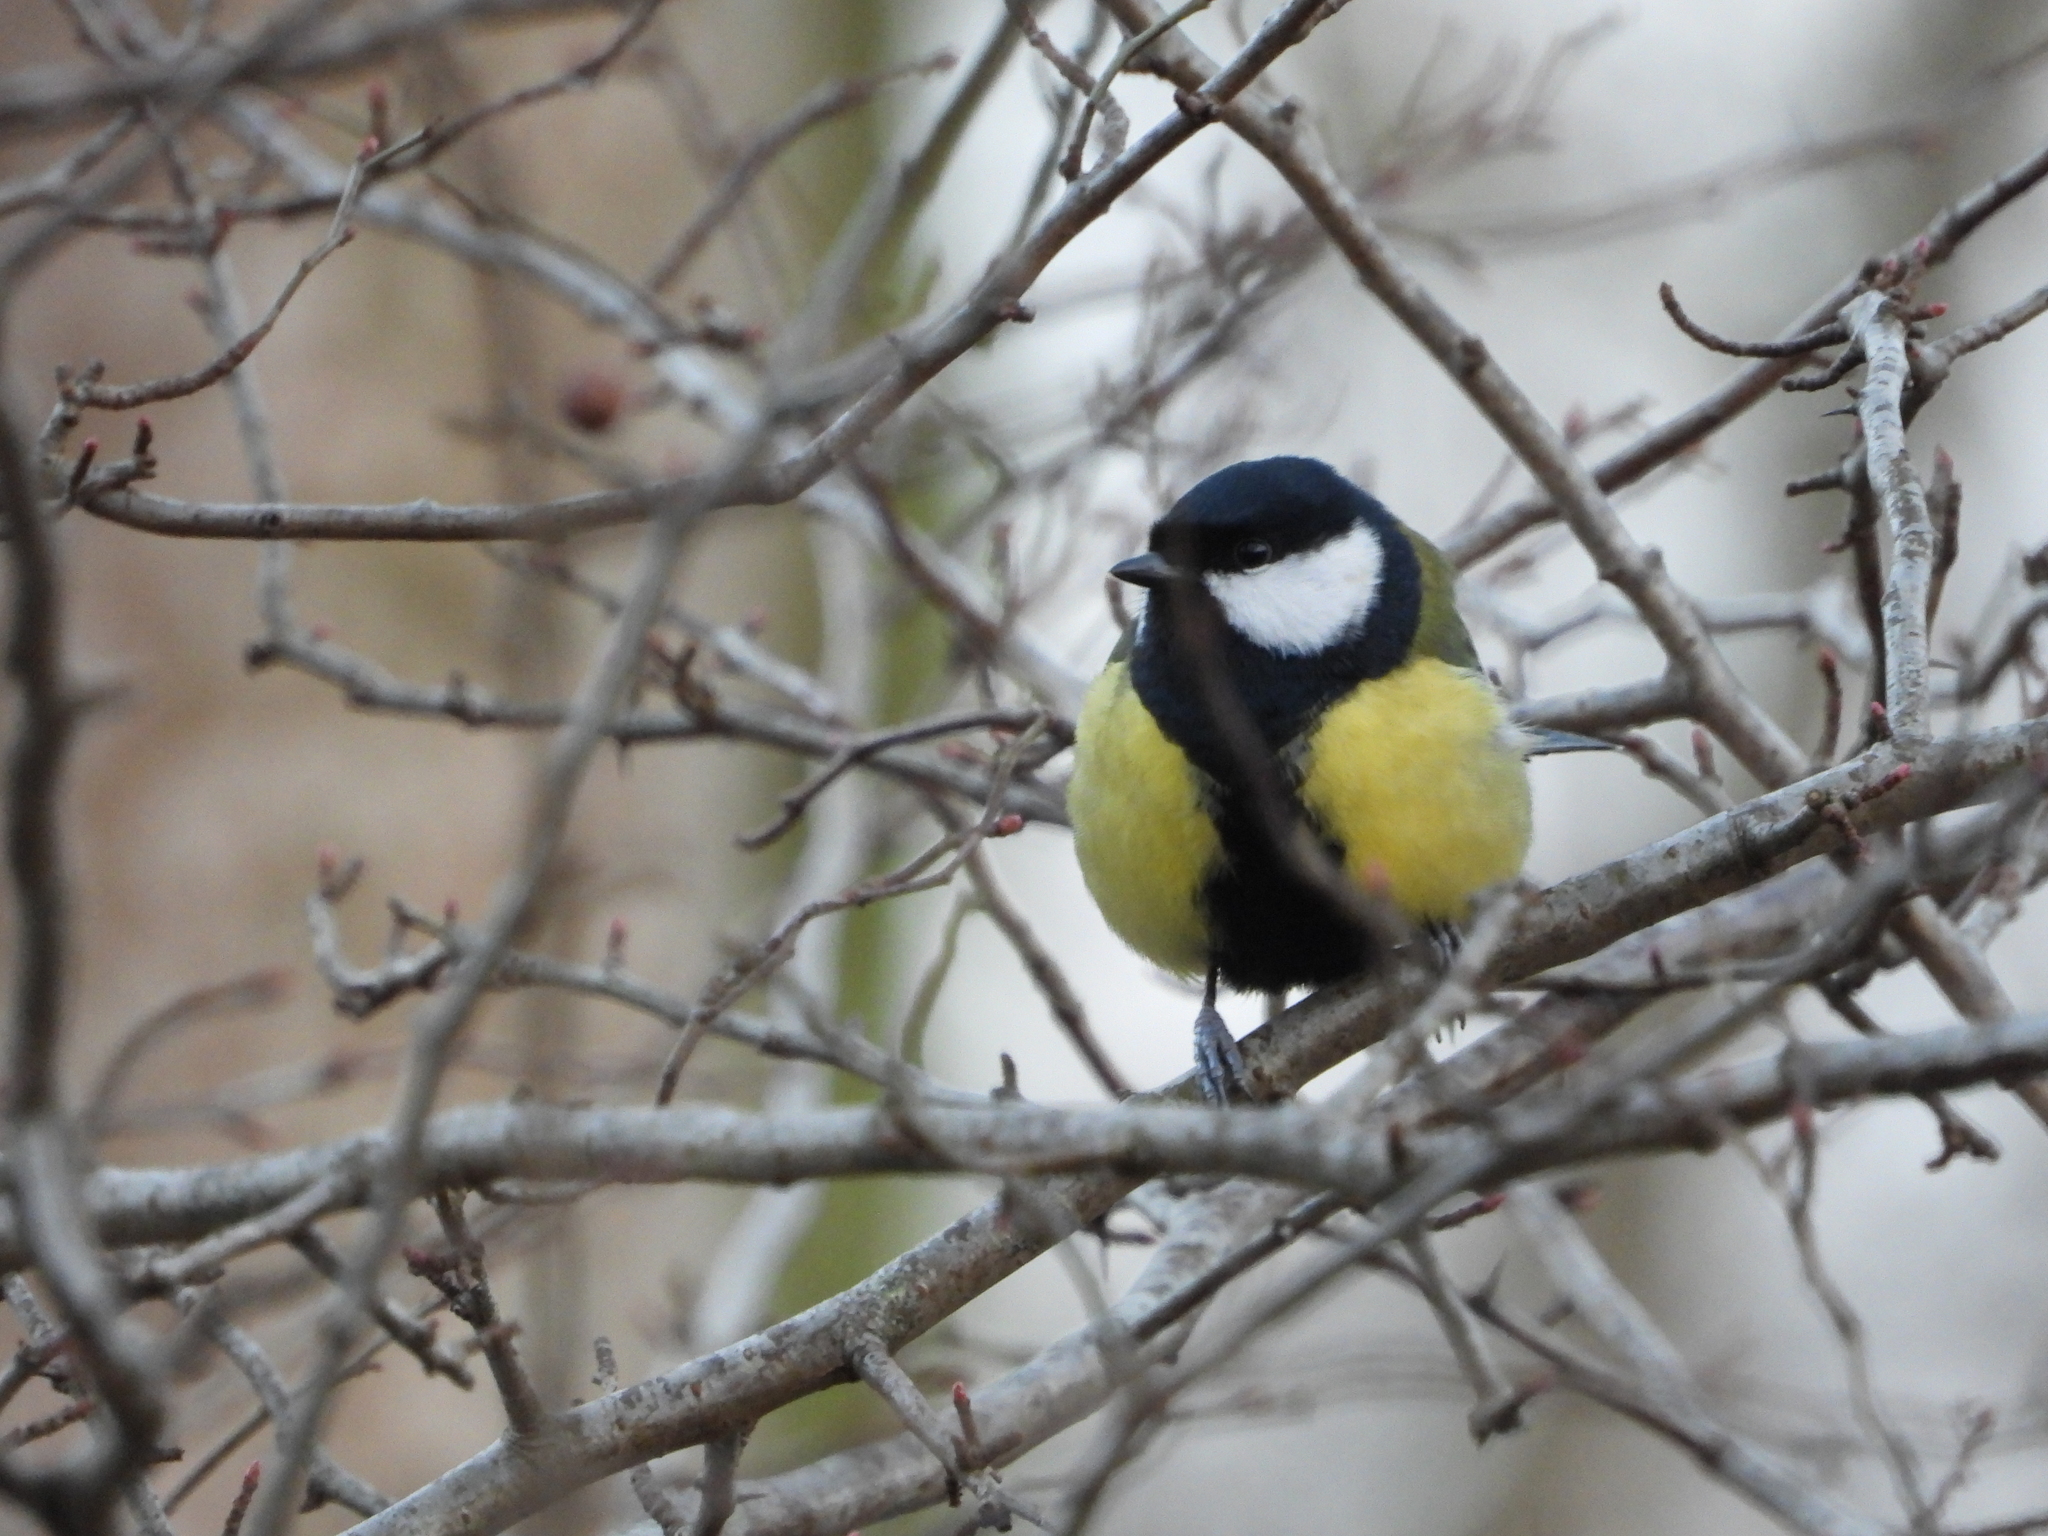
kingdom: Animalia
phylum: Chordata
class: Aves
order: Passeriformes
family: Paridae
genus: Parus
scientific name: Parus major
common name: Great tit
